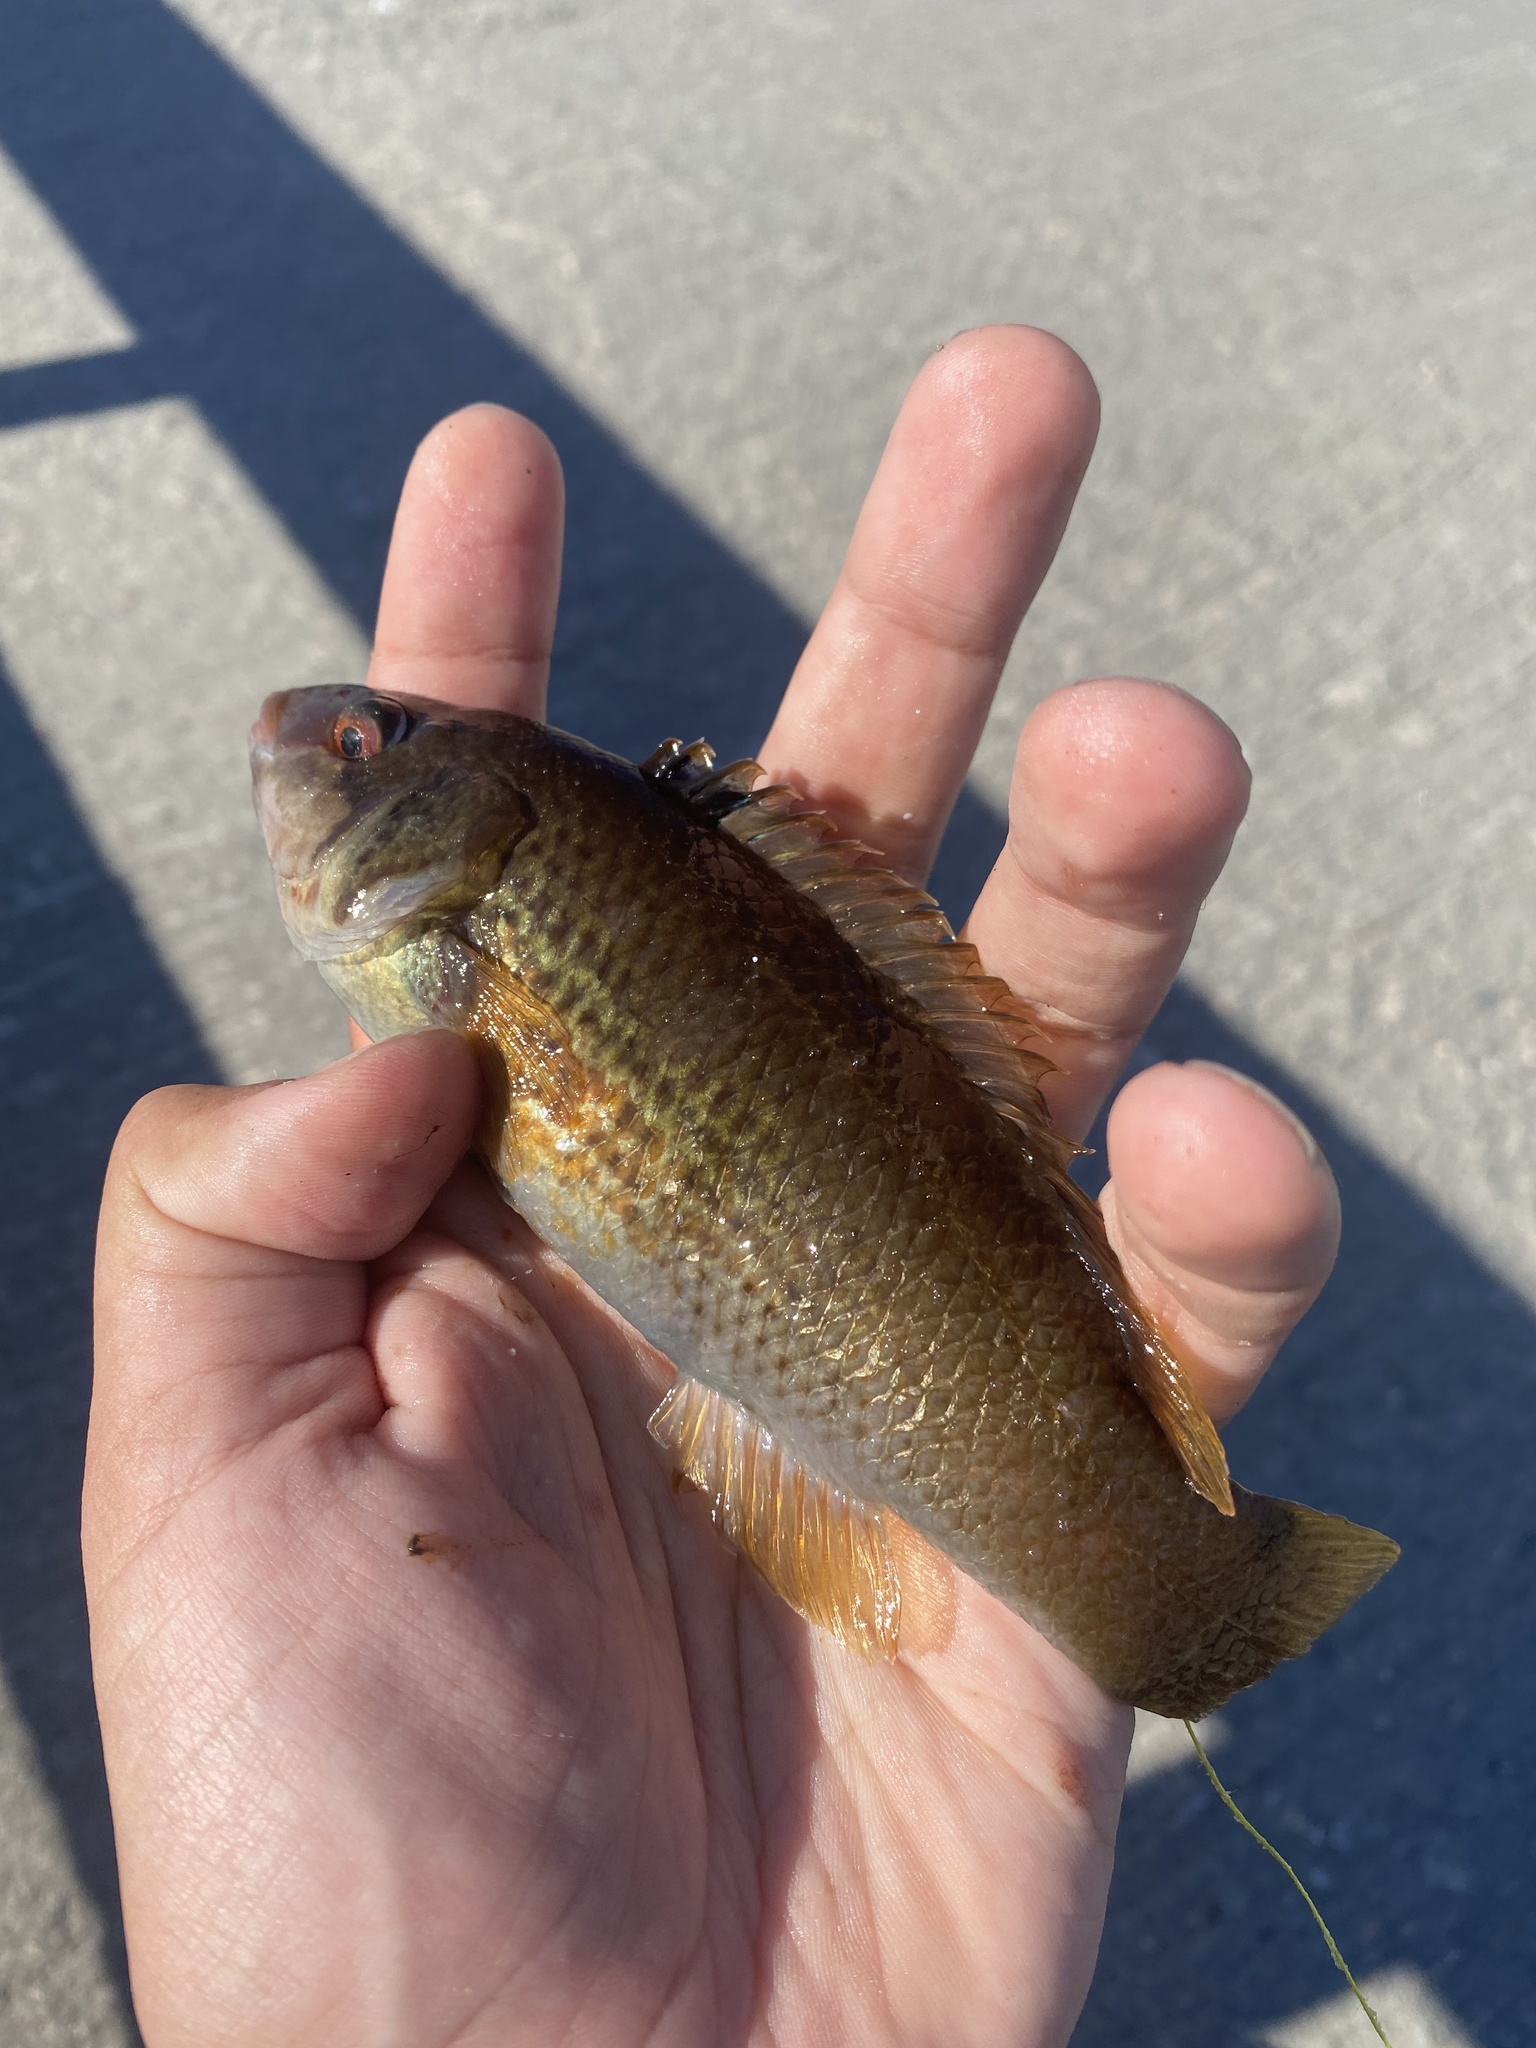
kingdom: Animalia
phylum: Chordata
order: Perciformes
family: Labridae
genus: Ctenolabrus
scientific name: Ctenolabrus rupestris
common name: Goldsinny
